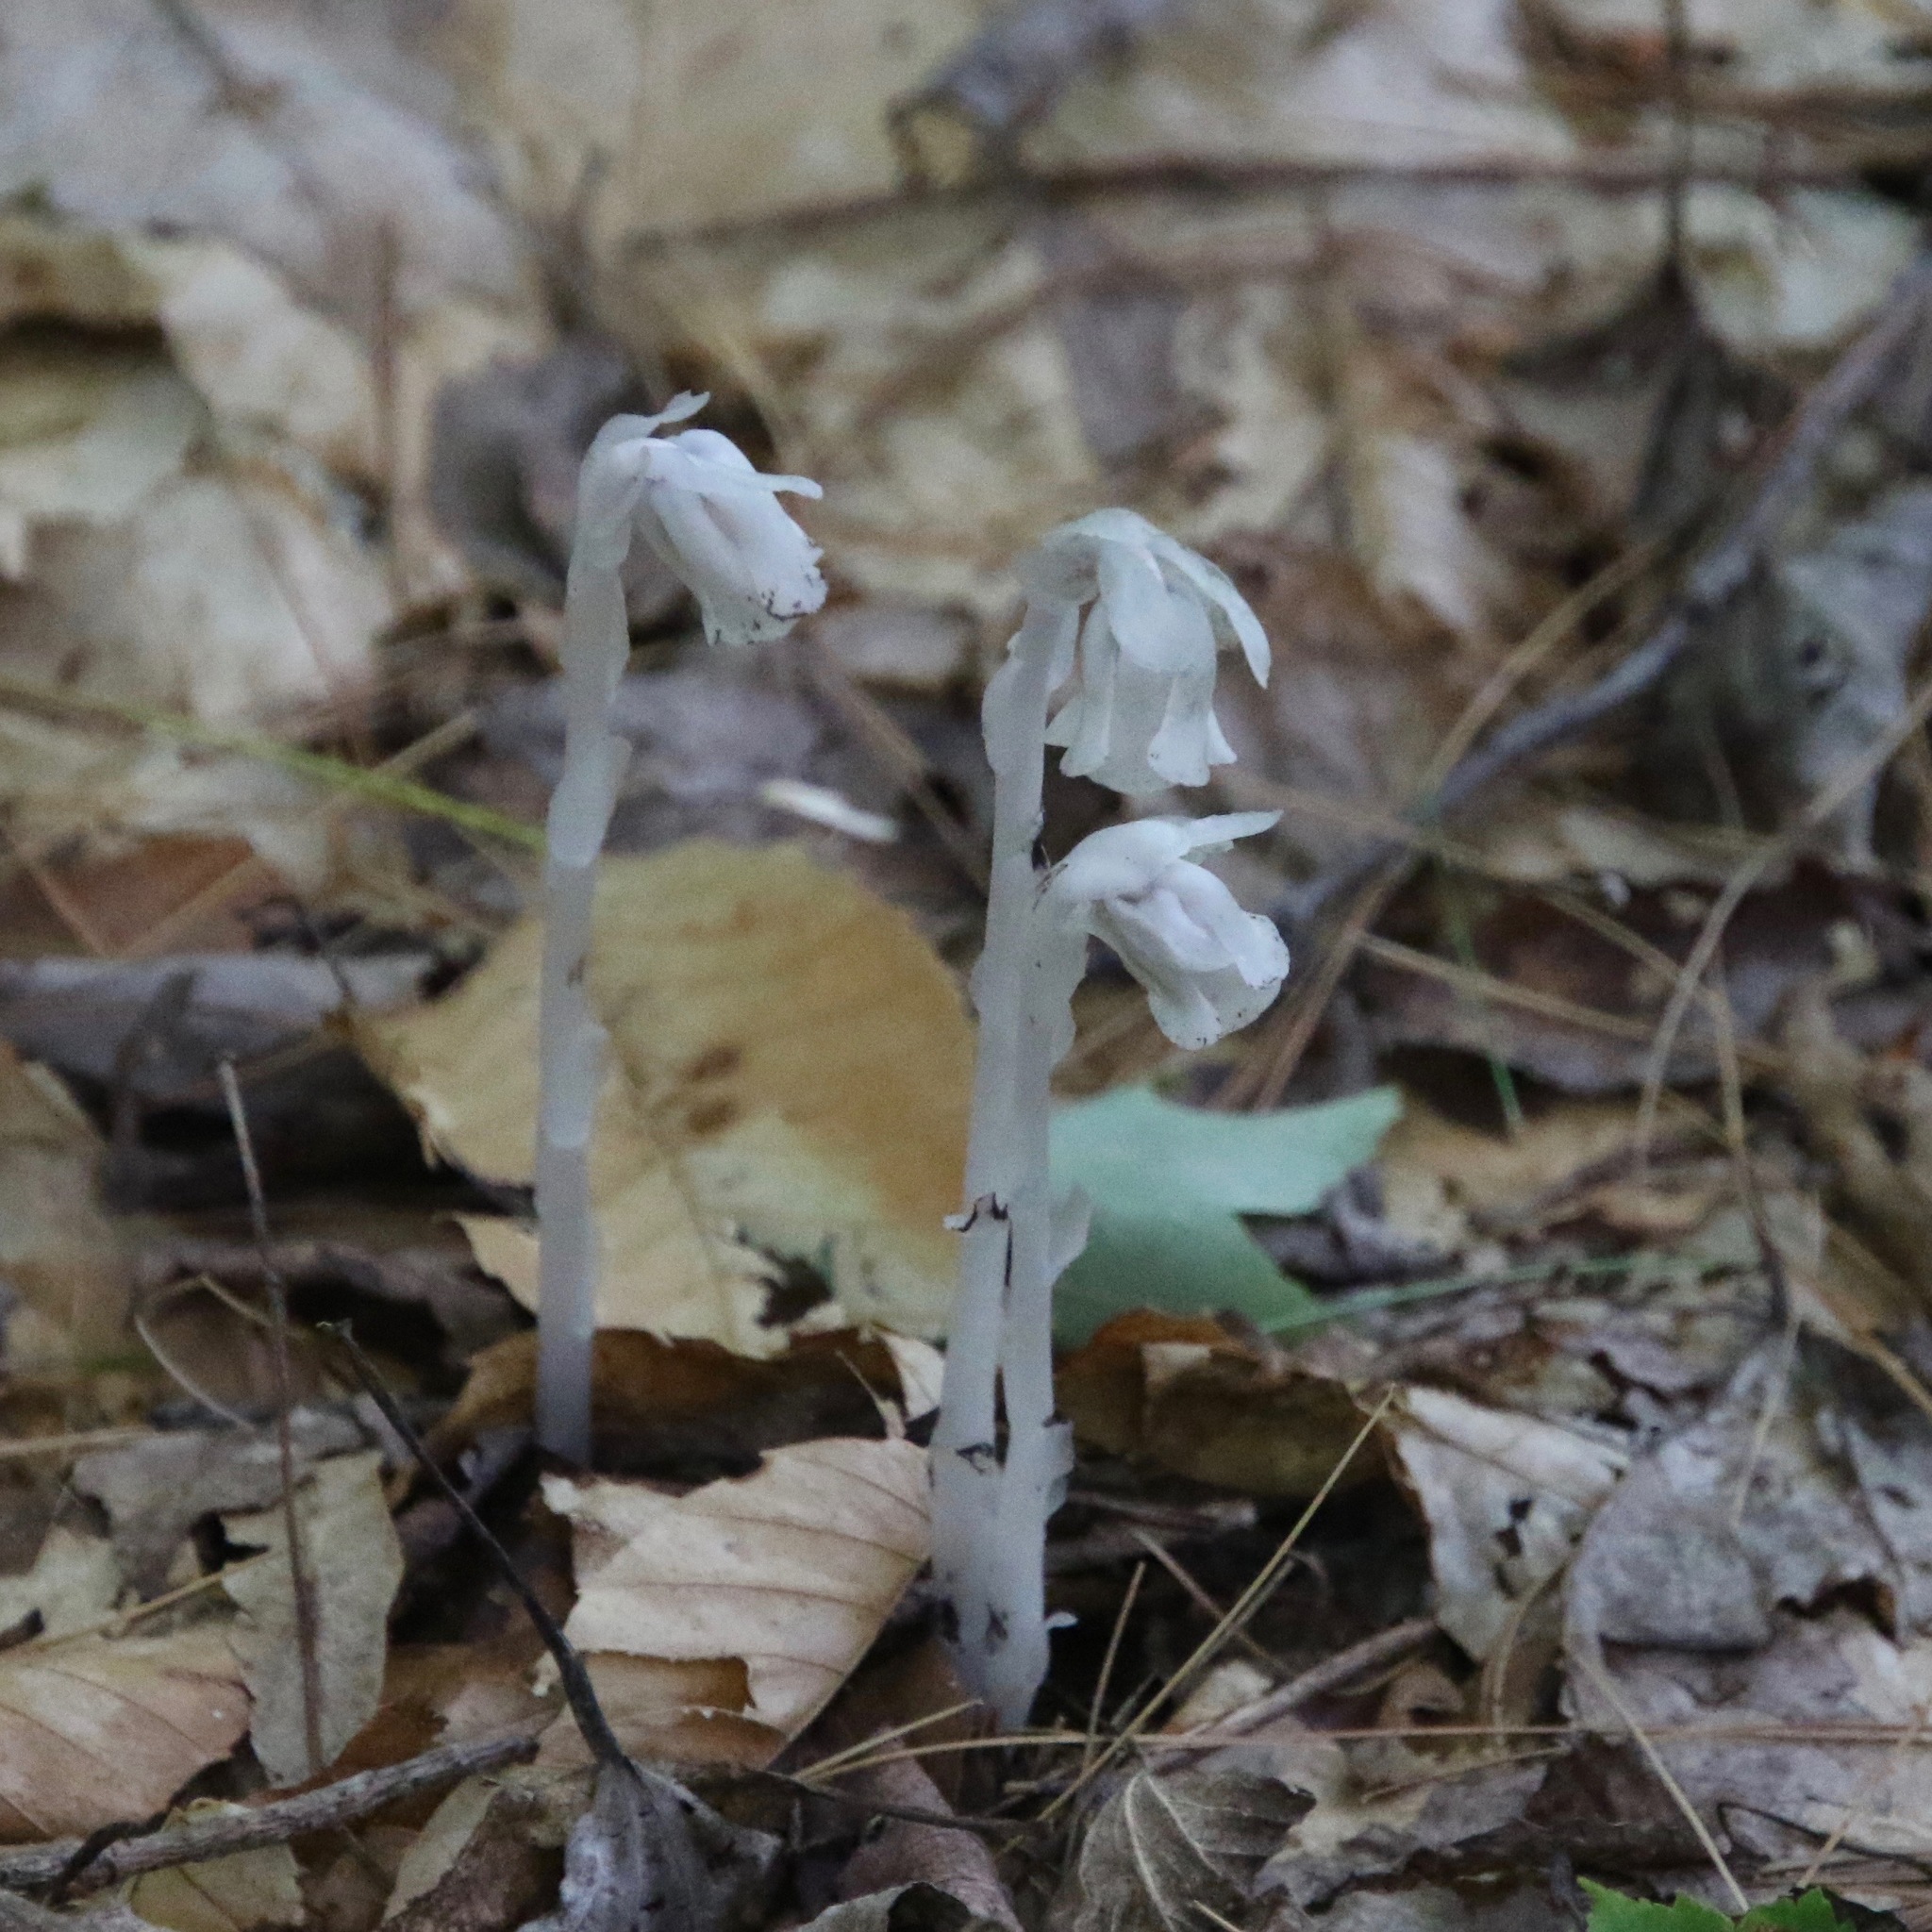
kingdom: Plantae
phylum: Tracheophyta
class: Magnoliopsida
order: Ericales
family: Ericaceae
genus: Monotropa
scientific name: Monotropa uniflora
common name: Convulsion root
